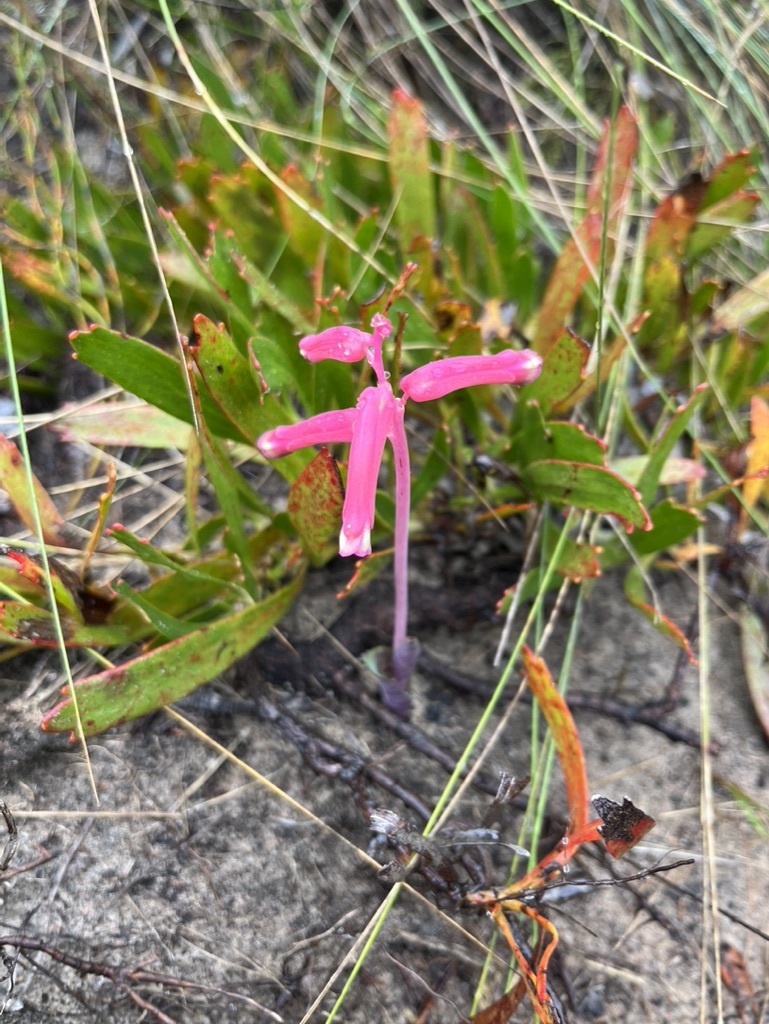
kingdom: Plantae
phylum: Tracheophyta
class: Liliopsida
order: Asparagales
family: Asparagaceae
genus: Lachenalia
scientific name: Lachenalia punctata
